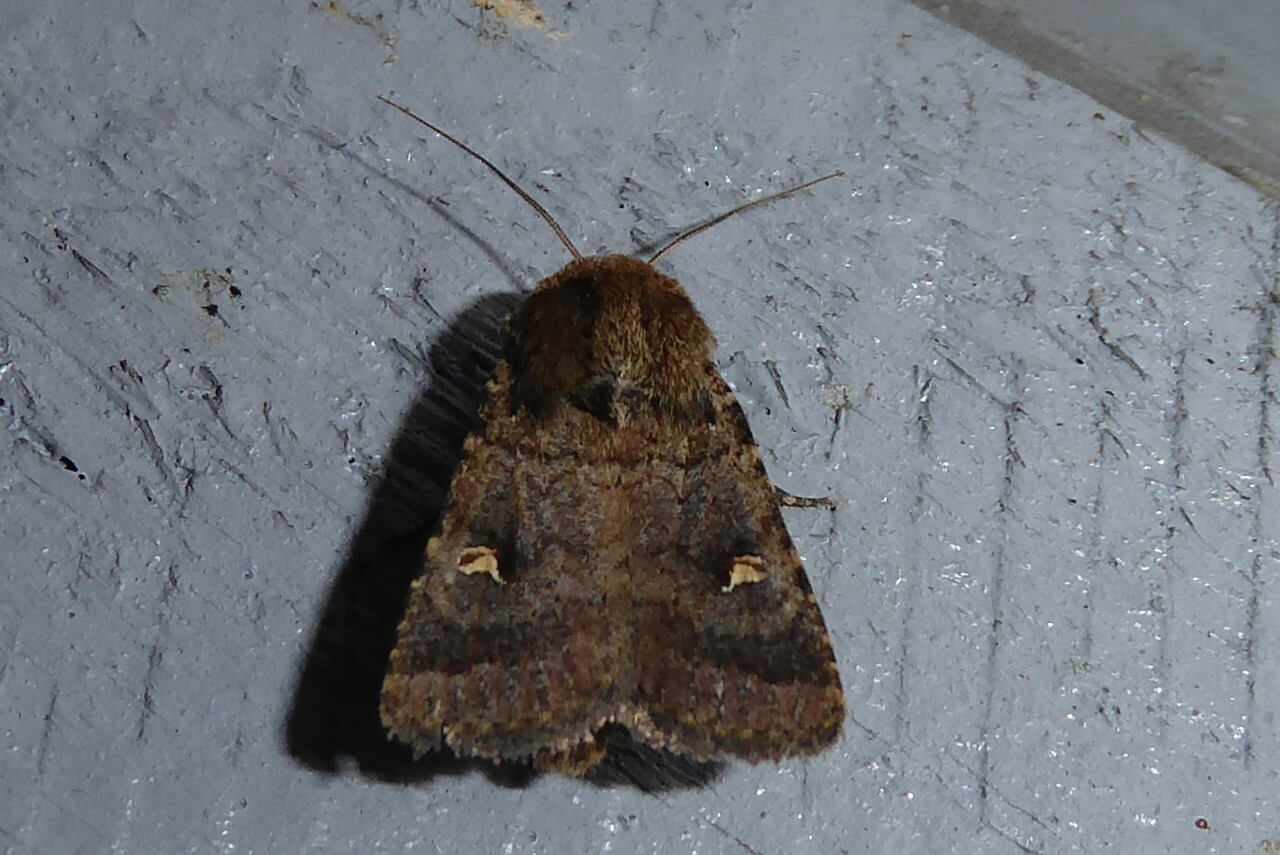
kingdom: Animalia
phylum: Arthropoda
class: Insecta
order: Lepidoptera
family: Noctuidae
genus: Proteuxoa
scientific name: Proteuxoa tetronycha
